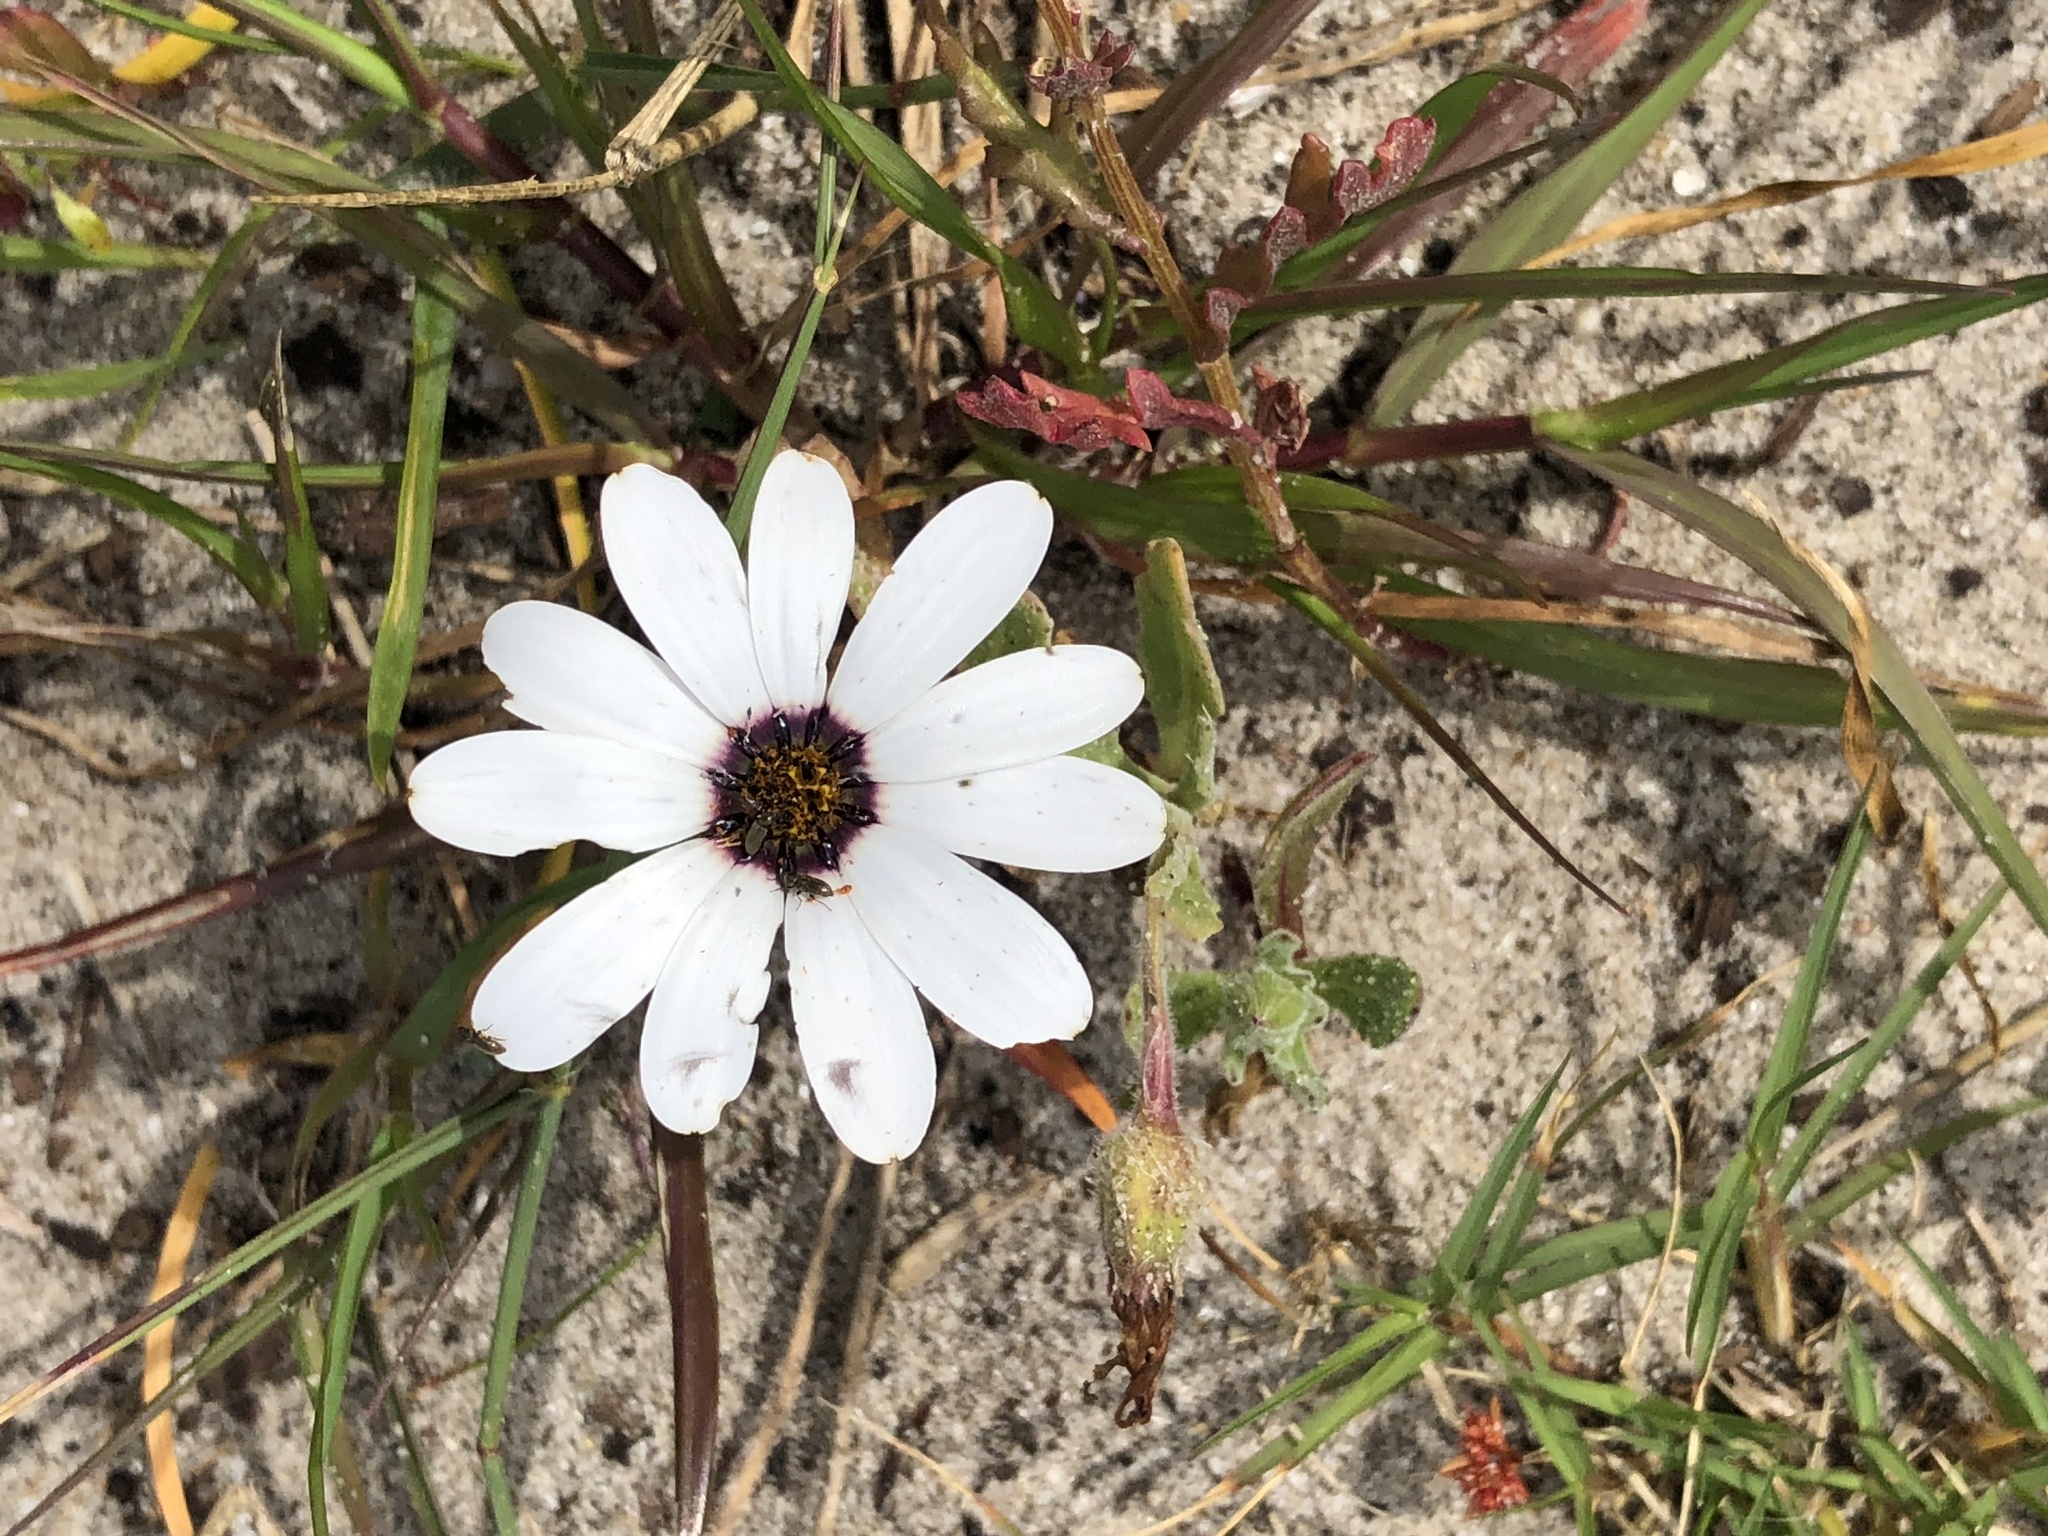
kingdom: Plantae
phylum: Tracheophyta
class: Magnoliopsida
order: Asterales
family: Asteraceae
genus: Dimorphotheca
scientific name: Dimorphotheca pluvialis
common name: Weather prophet
